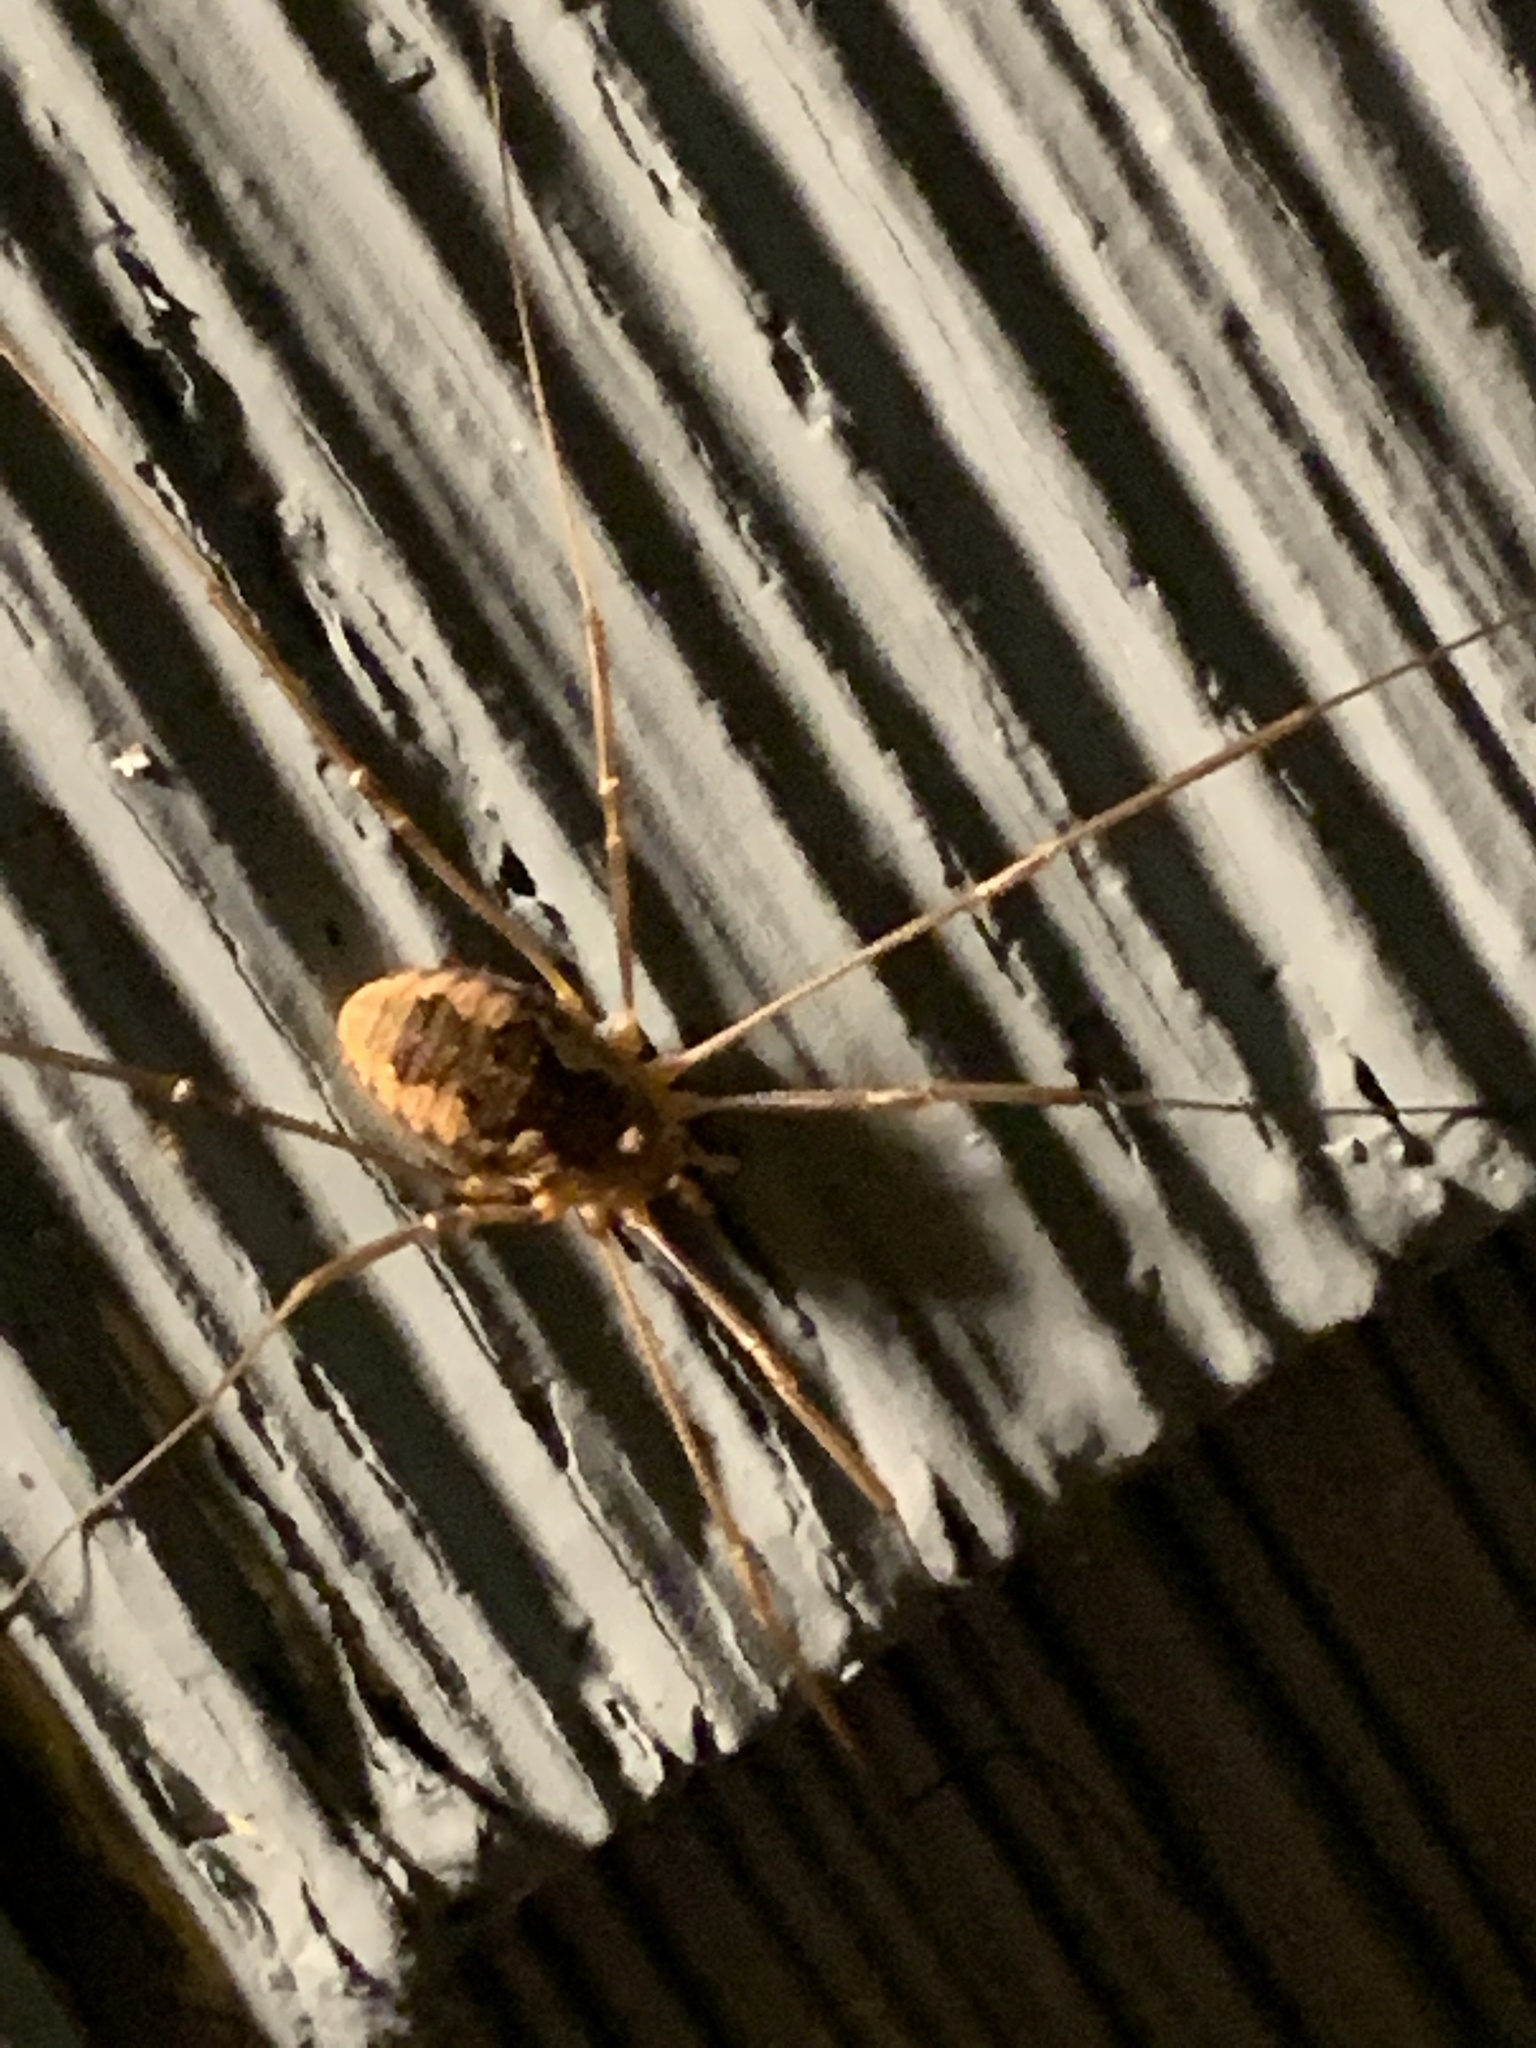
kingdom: Animalia
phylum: Arthropoda
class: Arachnida
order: Opiliones
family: Phalangiidae
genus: Phalangium
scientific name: Phalangium opilio
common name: Daddy longleg
